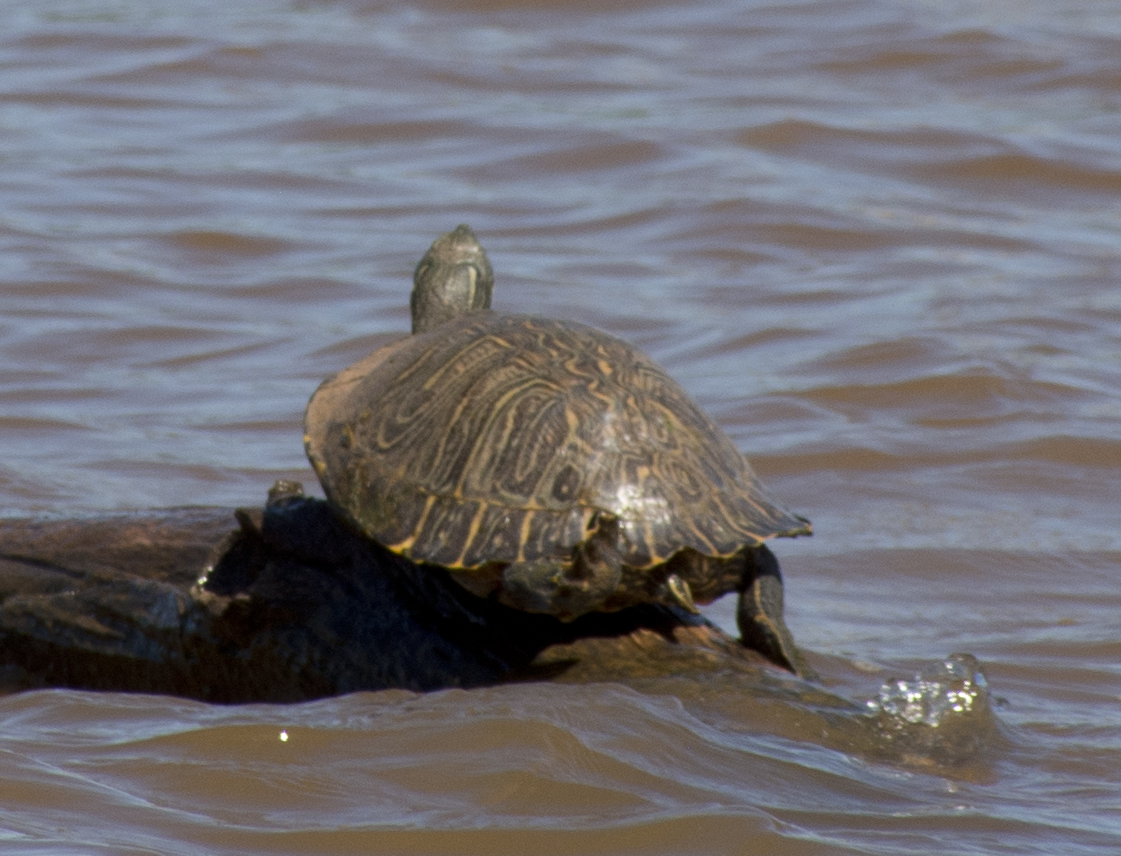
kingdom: Animalia
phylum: Chordata
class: Testudines
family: Emydidae
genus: Trachemys
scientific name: Trachemys scripta
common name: Slider
